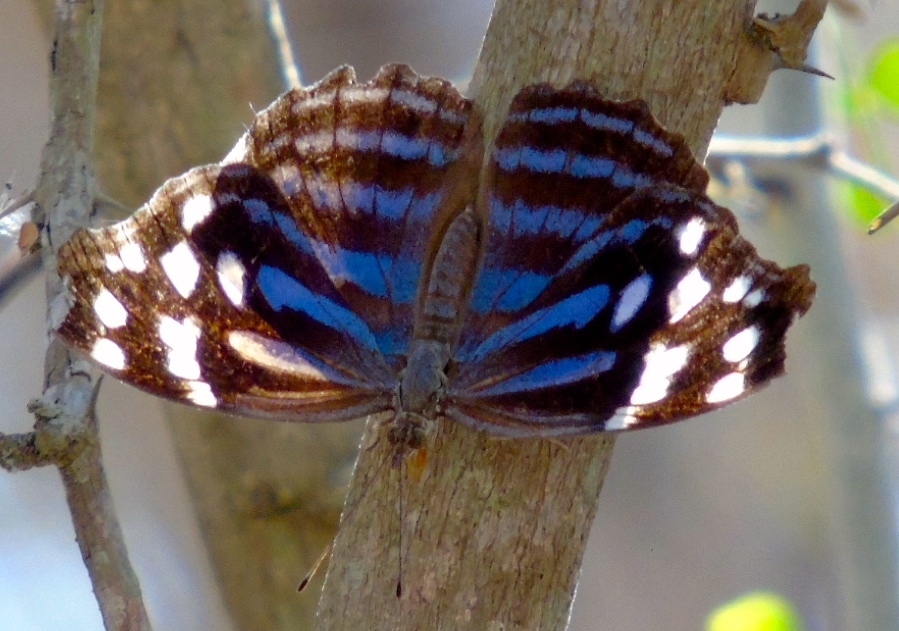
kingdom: Animalia
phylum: Arthropoda
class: Insecta
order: Lepidoptera
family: Nymphalidae
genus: Myscelia
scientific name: Myscelia ethusa
